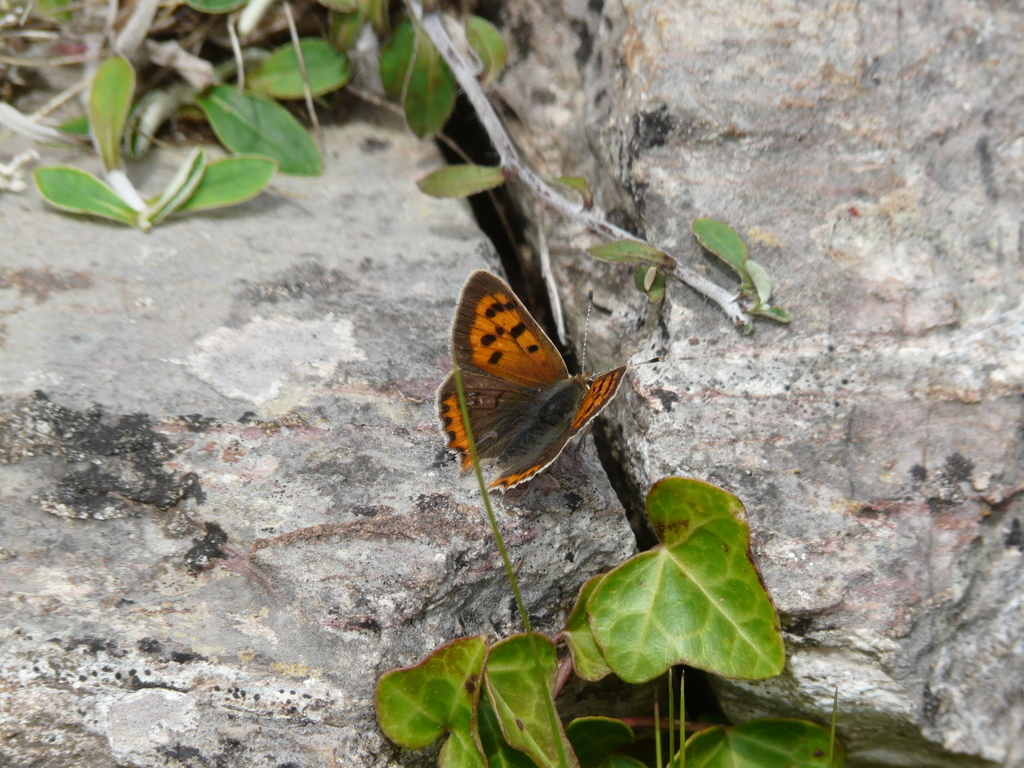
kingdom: Animalia
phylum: Arthropoda
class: Insecta
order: Lepidoptera
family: Lycaenidae
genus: Lycaena
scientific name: Lycaena phlaeas
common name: Small copper
